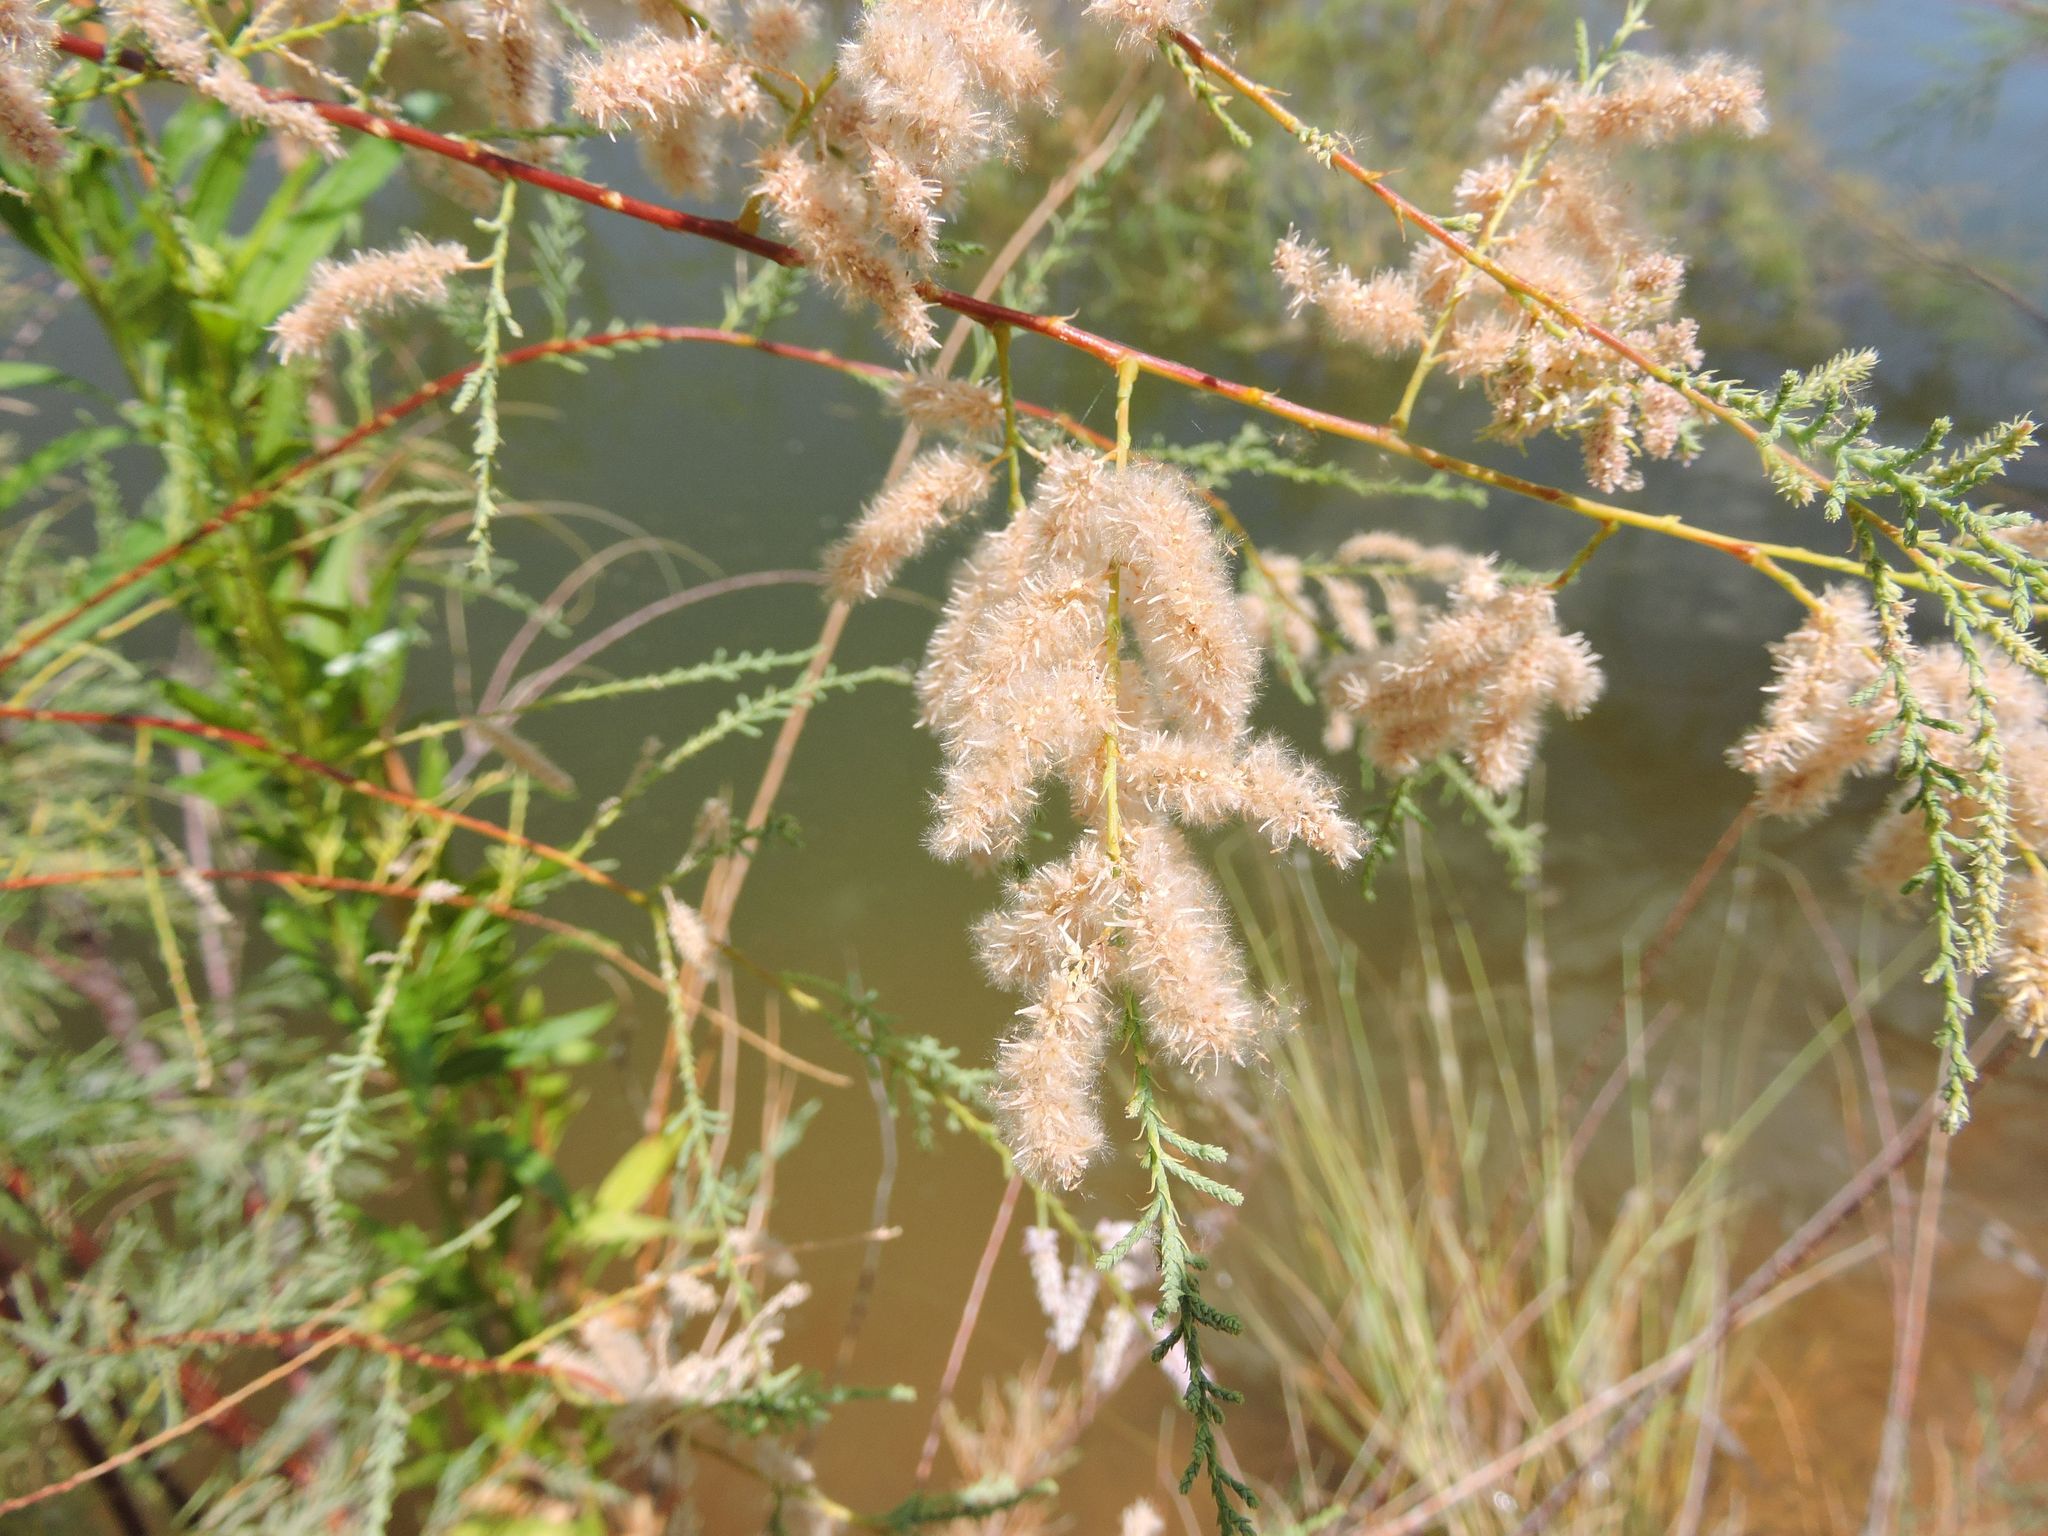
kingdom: Plantae
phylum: Tracheophyta
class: Magnoliopsida
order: Caryophyllales
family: Tamaricaceae
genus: Tamarix
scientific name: Tamarix
